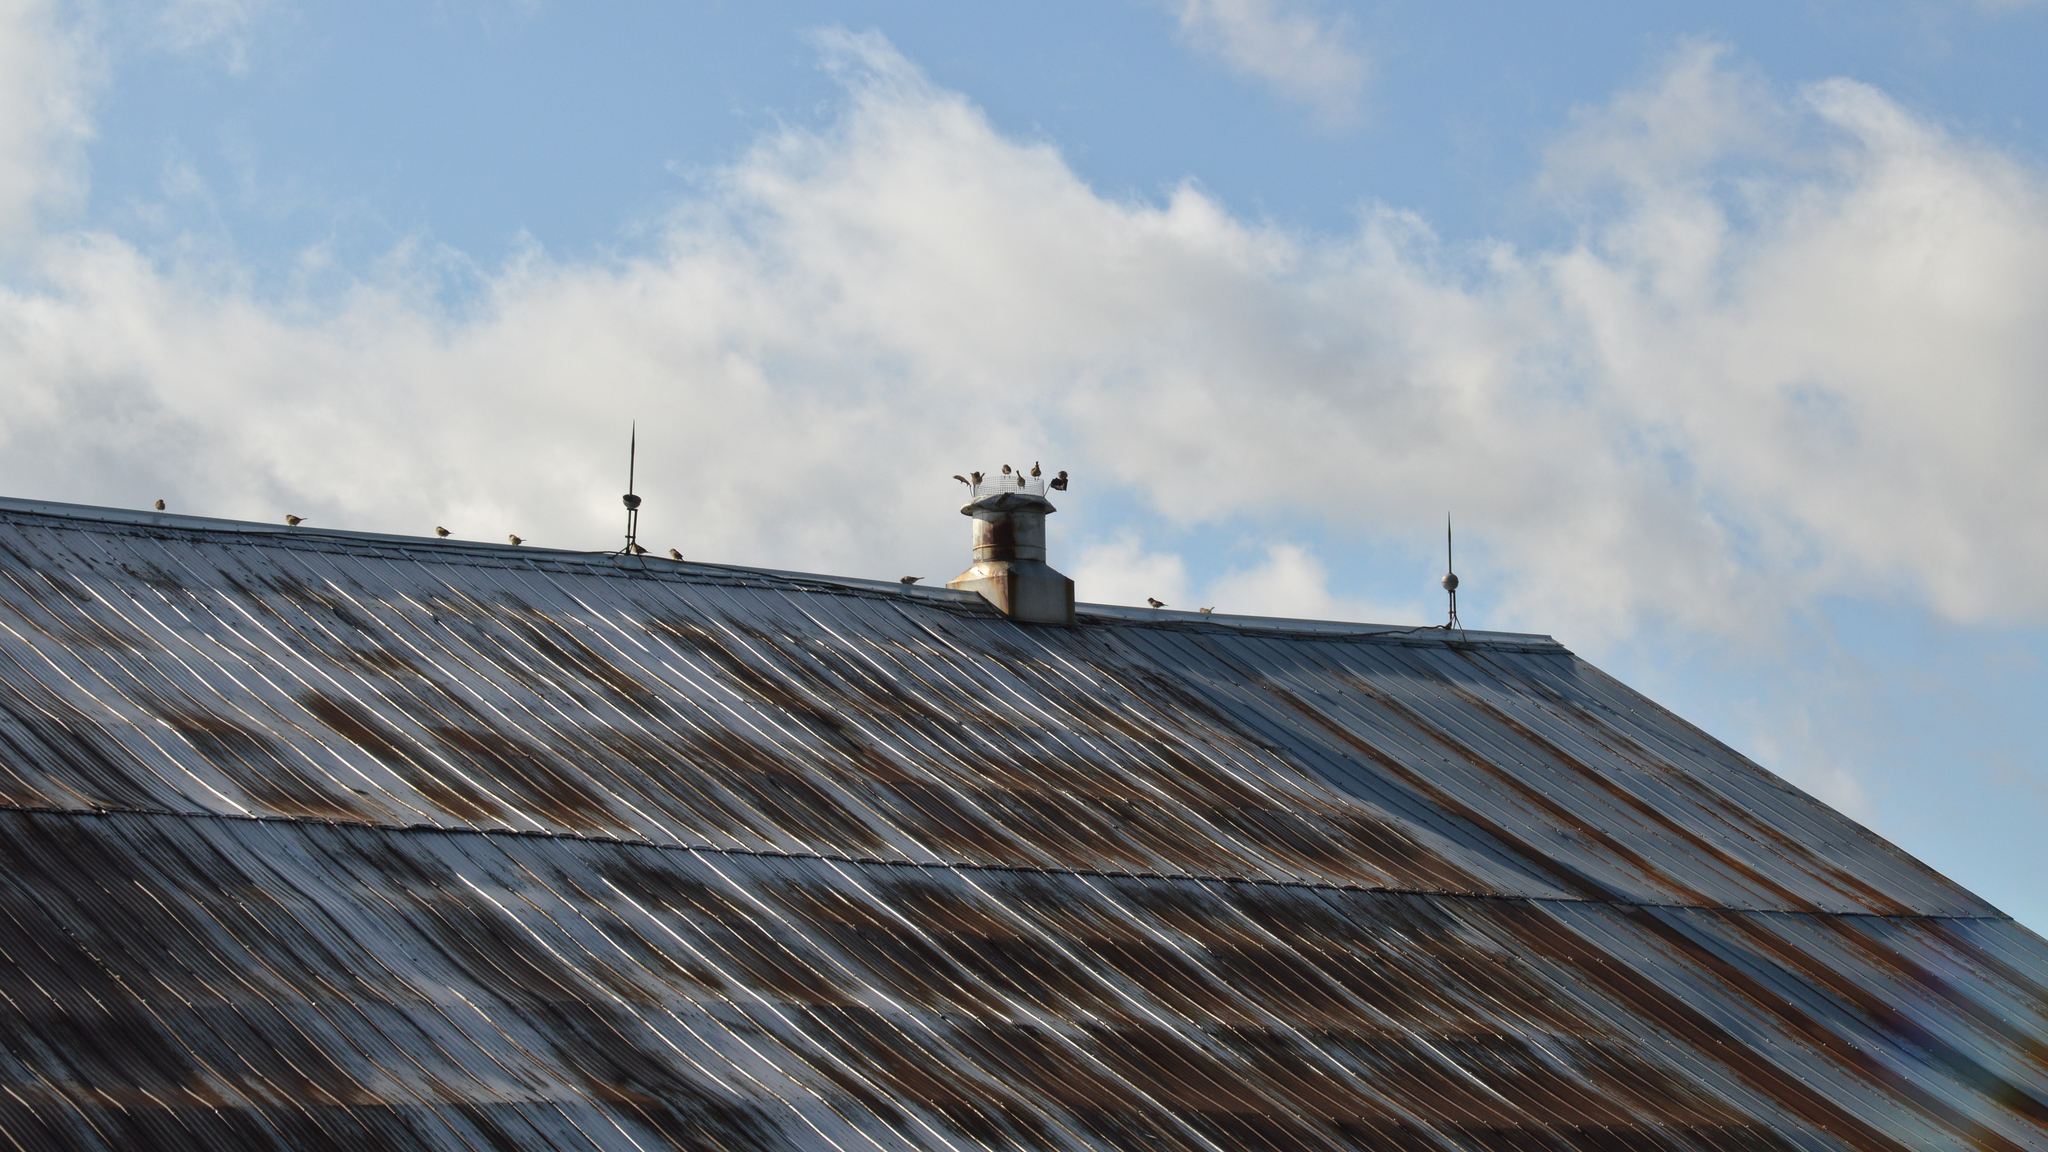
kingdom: Animalia
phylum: Chordata
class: Aves
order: Passeriformes
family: Passeridae
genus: Passer
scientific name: Passer domesticus
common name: House sparrow
